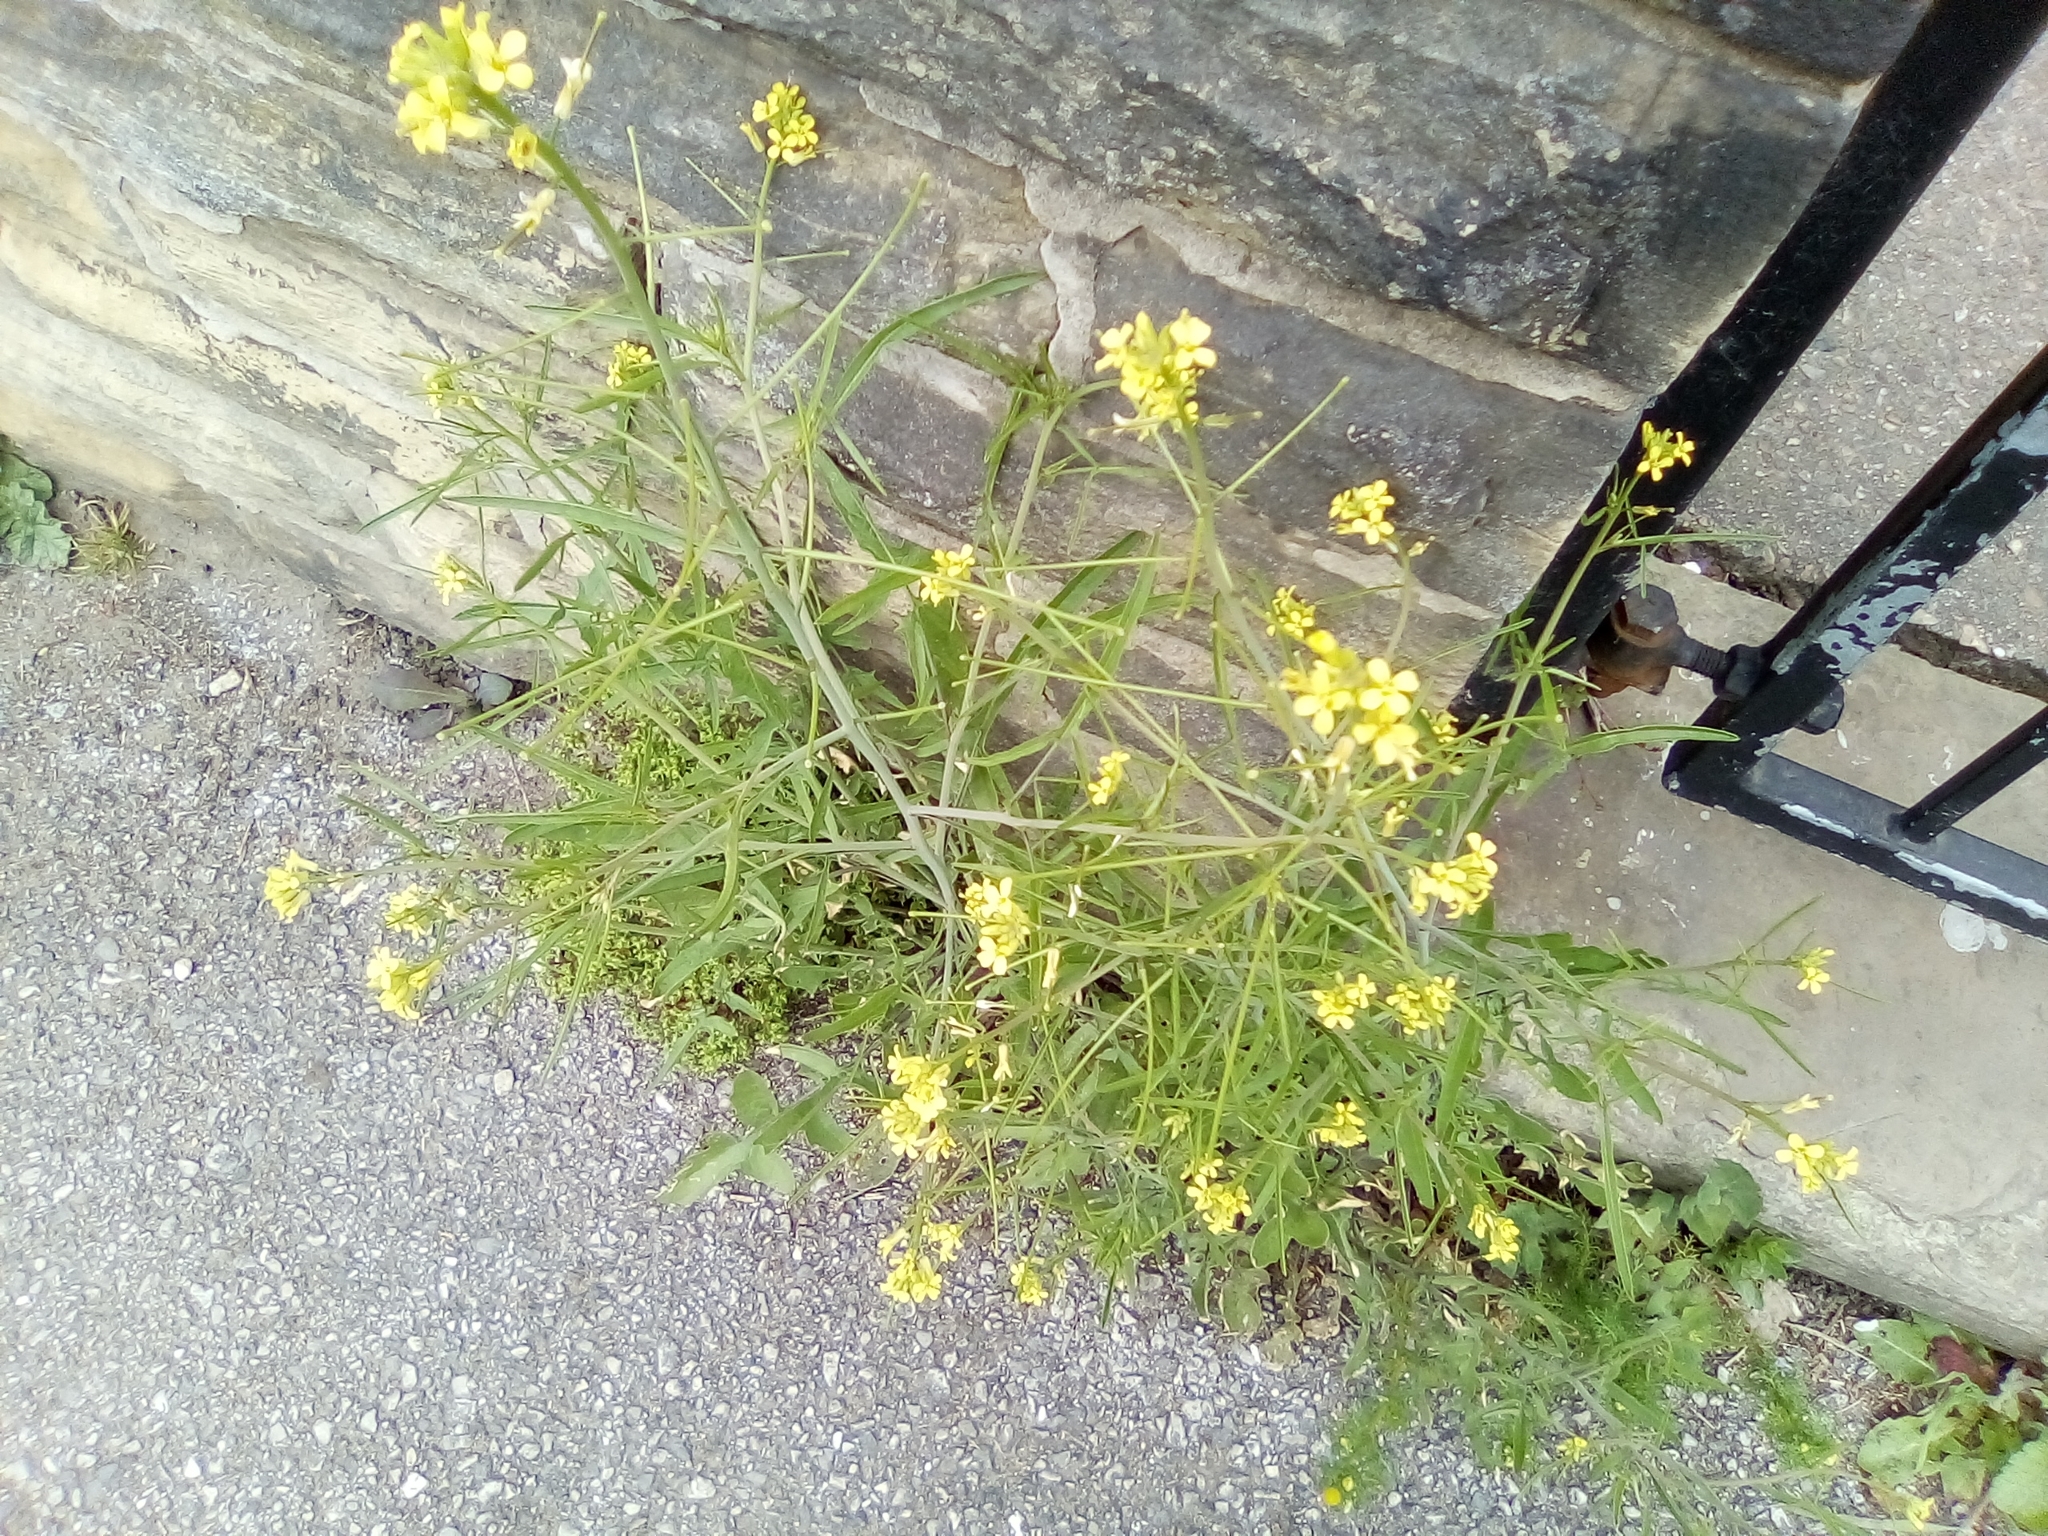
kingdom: Plantae
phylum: Tracheophyta
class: Magnoliopsida
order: Brassicales
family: Brassicaceae
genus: Sisymbrium
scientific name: Sisymbrium orientale
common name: Eastern rocket
